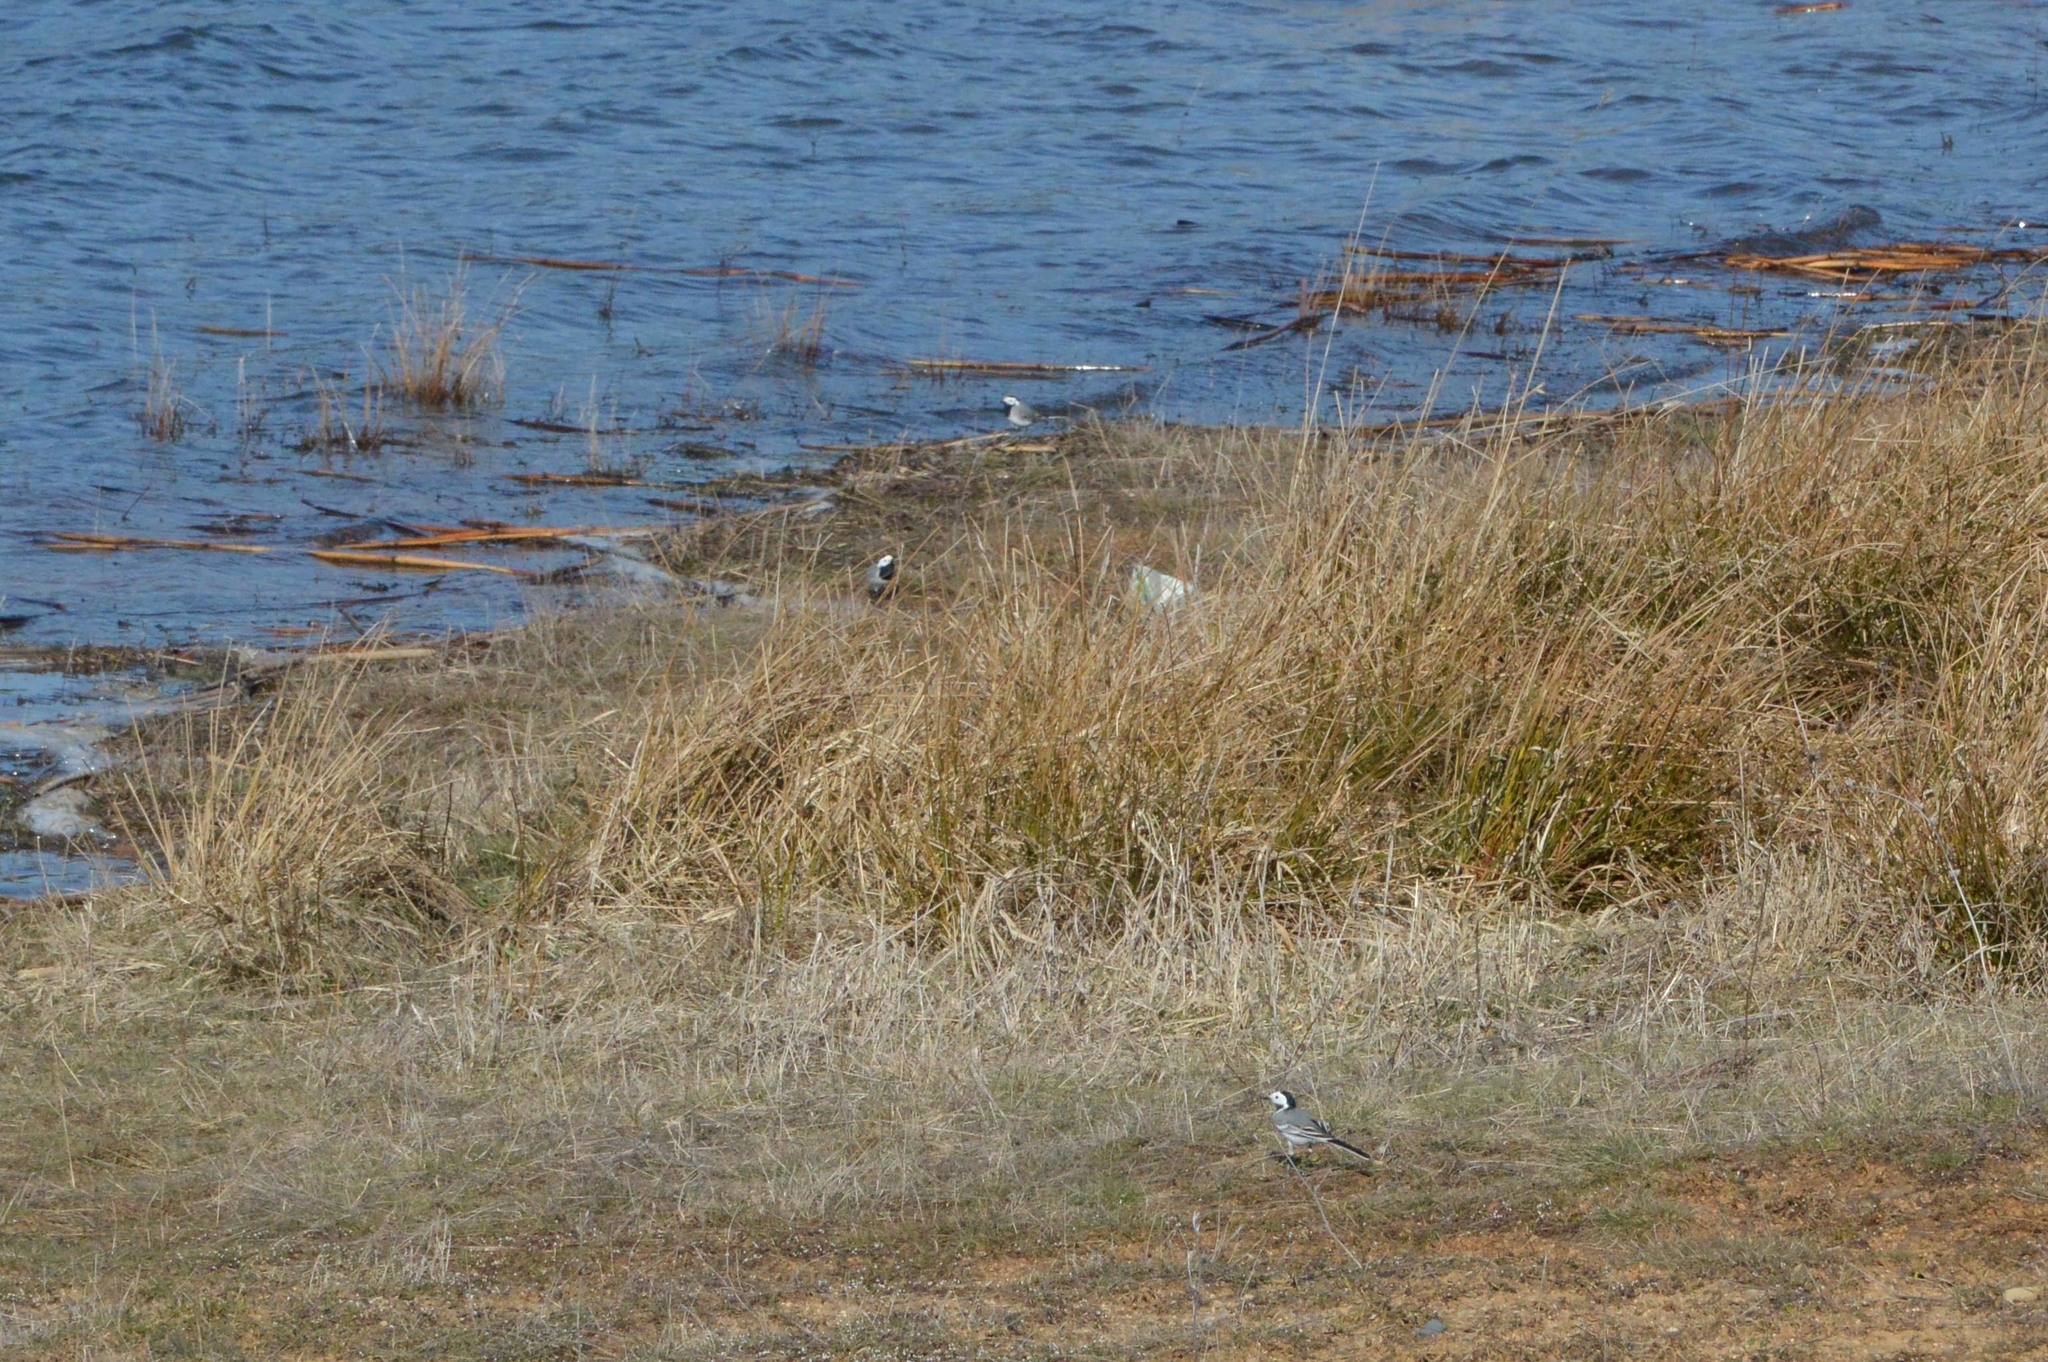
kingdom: Animalia
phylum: Chordata
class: Aves
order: Passeriformes
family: Motacillidae
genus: Motacilla
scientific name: Motacilla alba
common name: White wagtail
